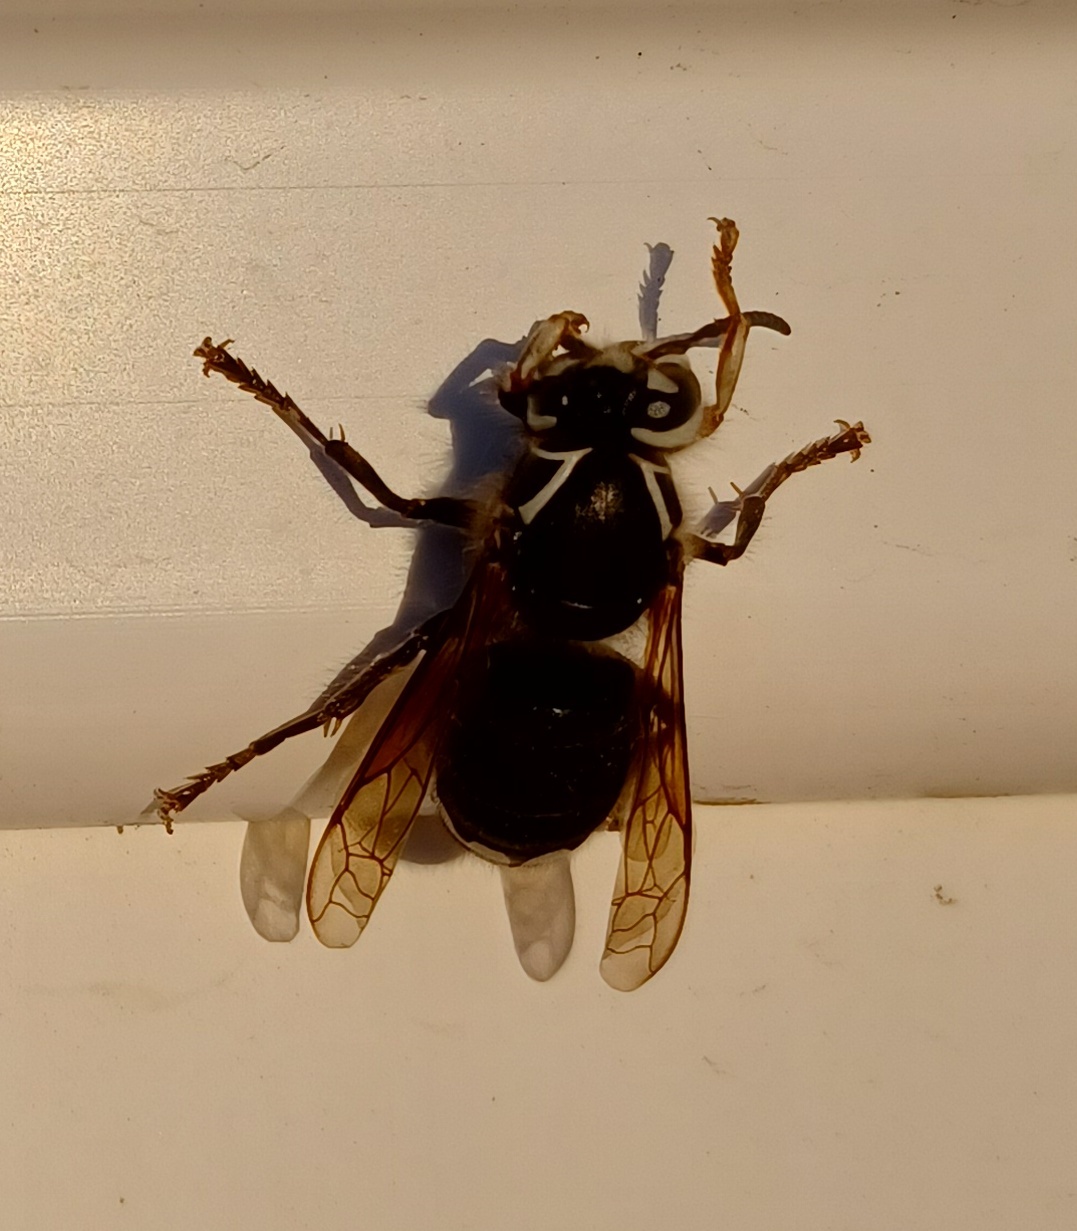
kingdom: Animalia
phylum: Arthropoda
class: Insecta
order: Hymenoptera
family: Vespidae
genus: Dolichovespula
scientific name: Dolichovespula maculata
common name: Bald-faced hornet
